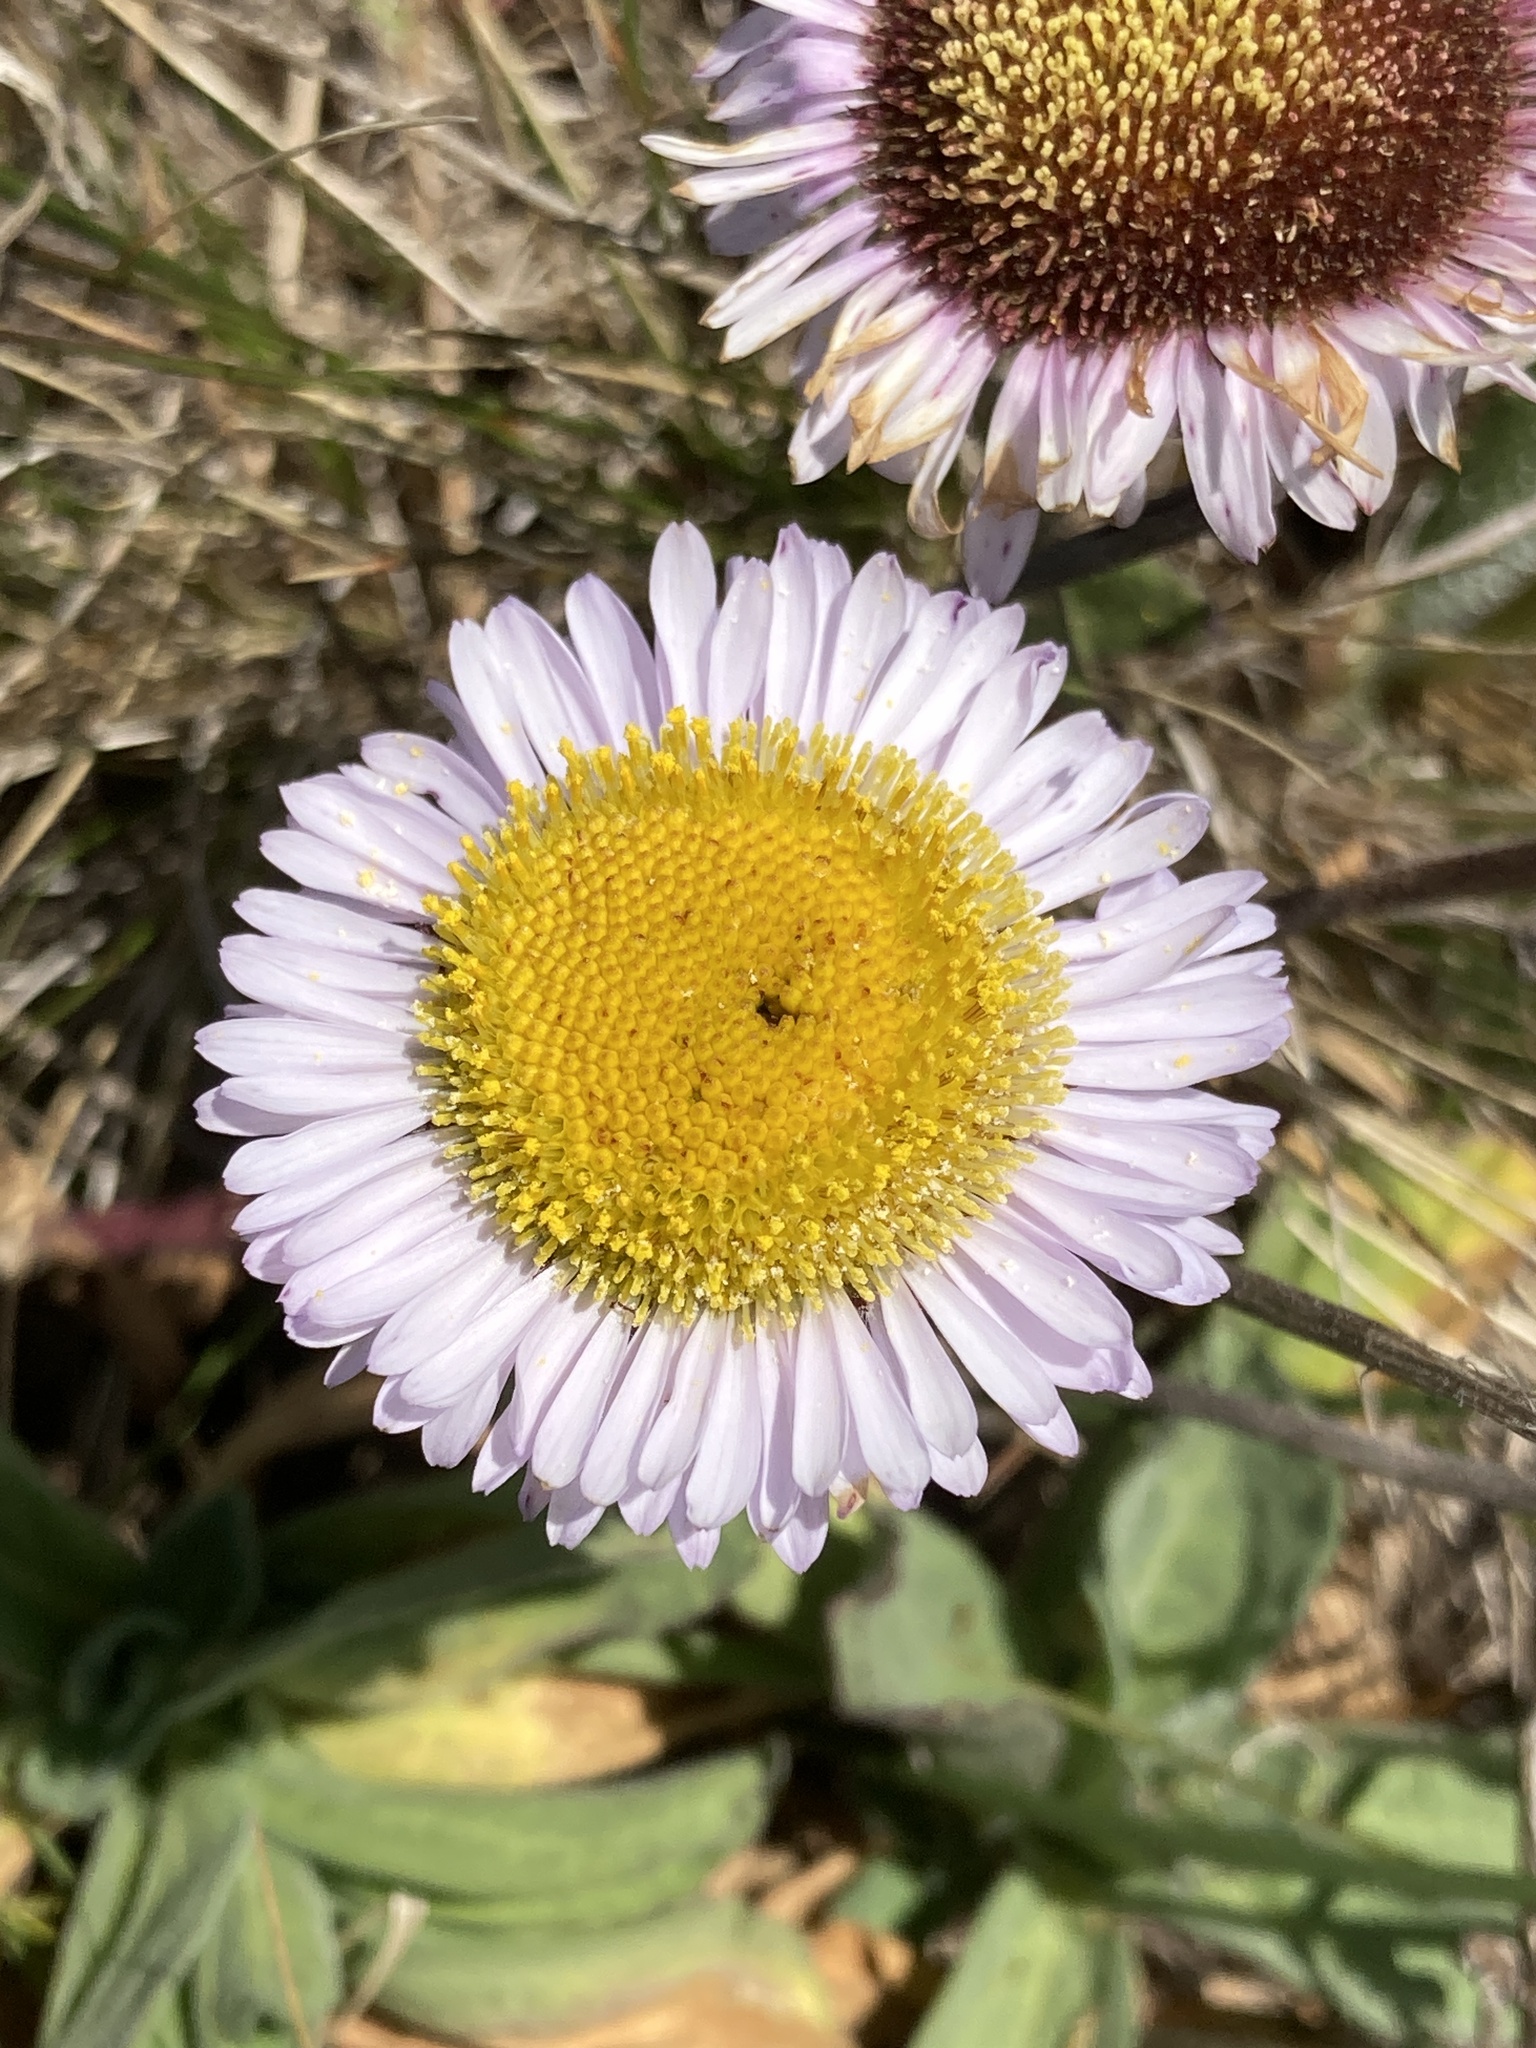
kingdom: Plantae
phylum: Tracheophyta
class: Magnoliopsida
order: Asterales
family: Asteraceae
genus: Erigeron
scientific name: Erigeron glaucus
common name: Seaside daisy
